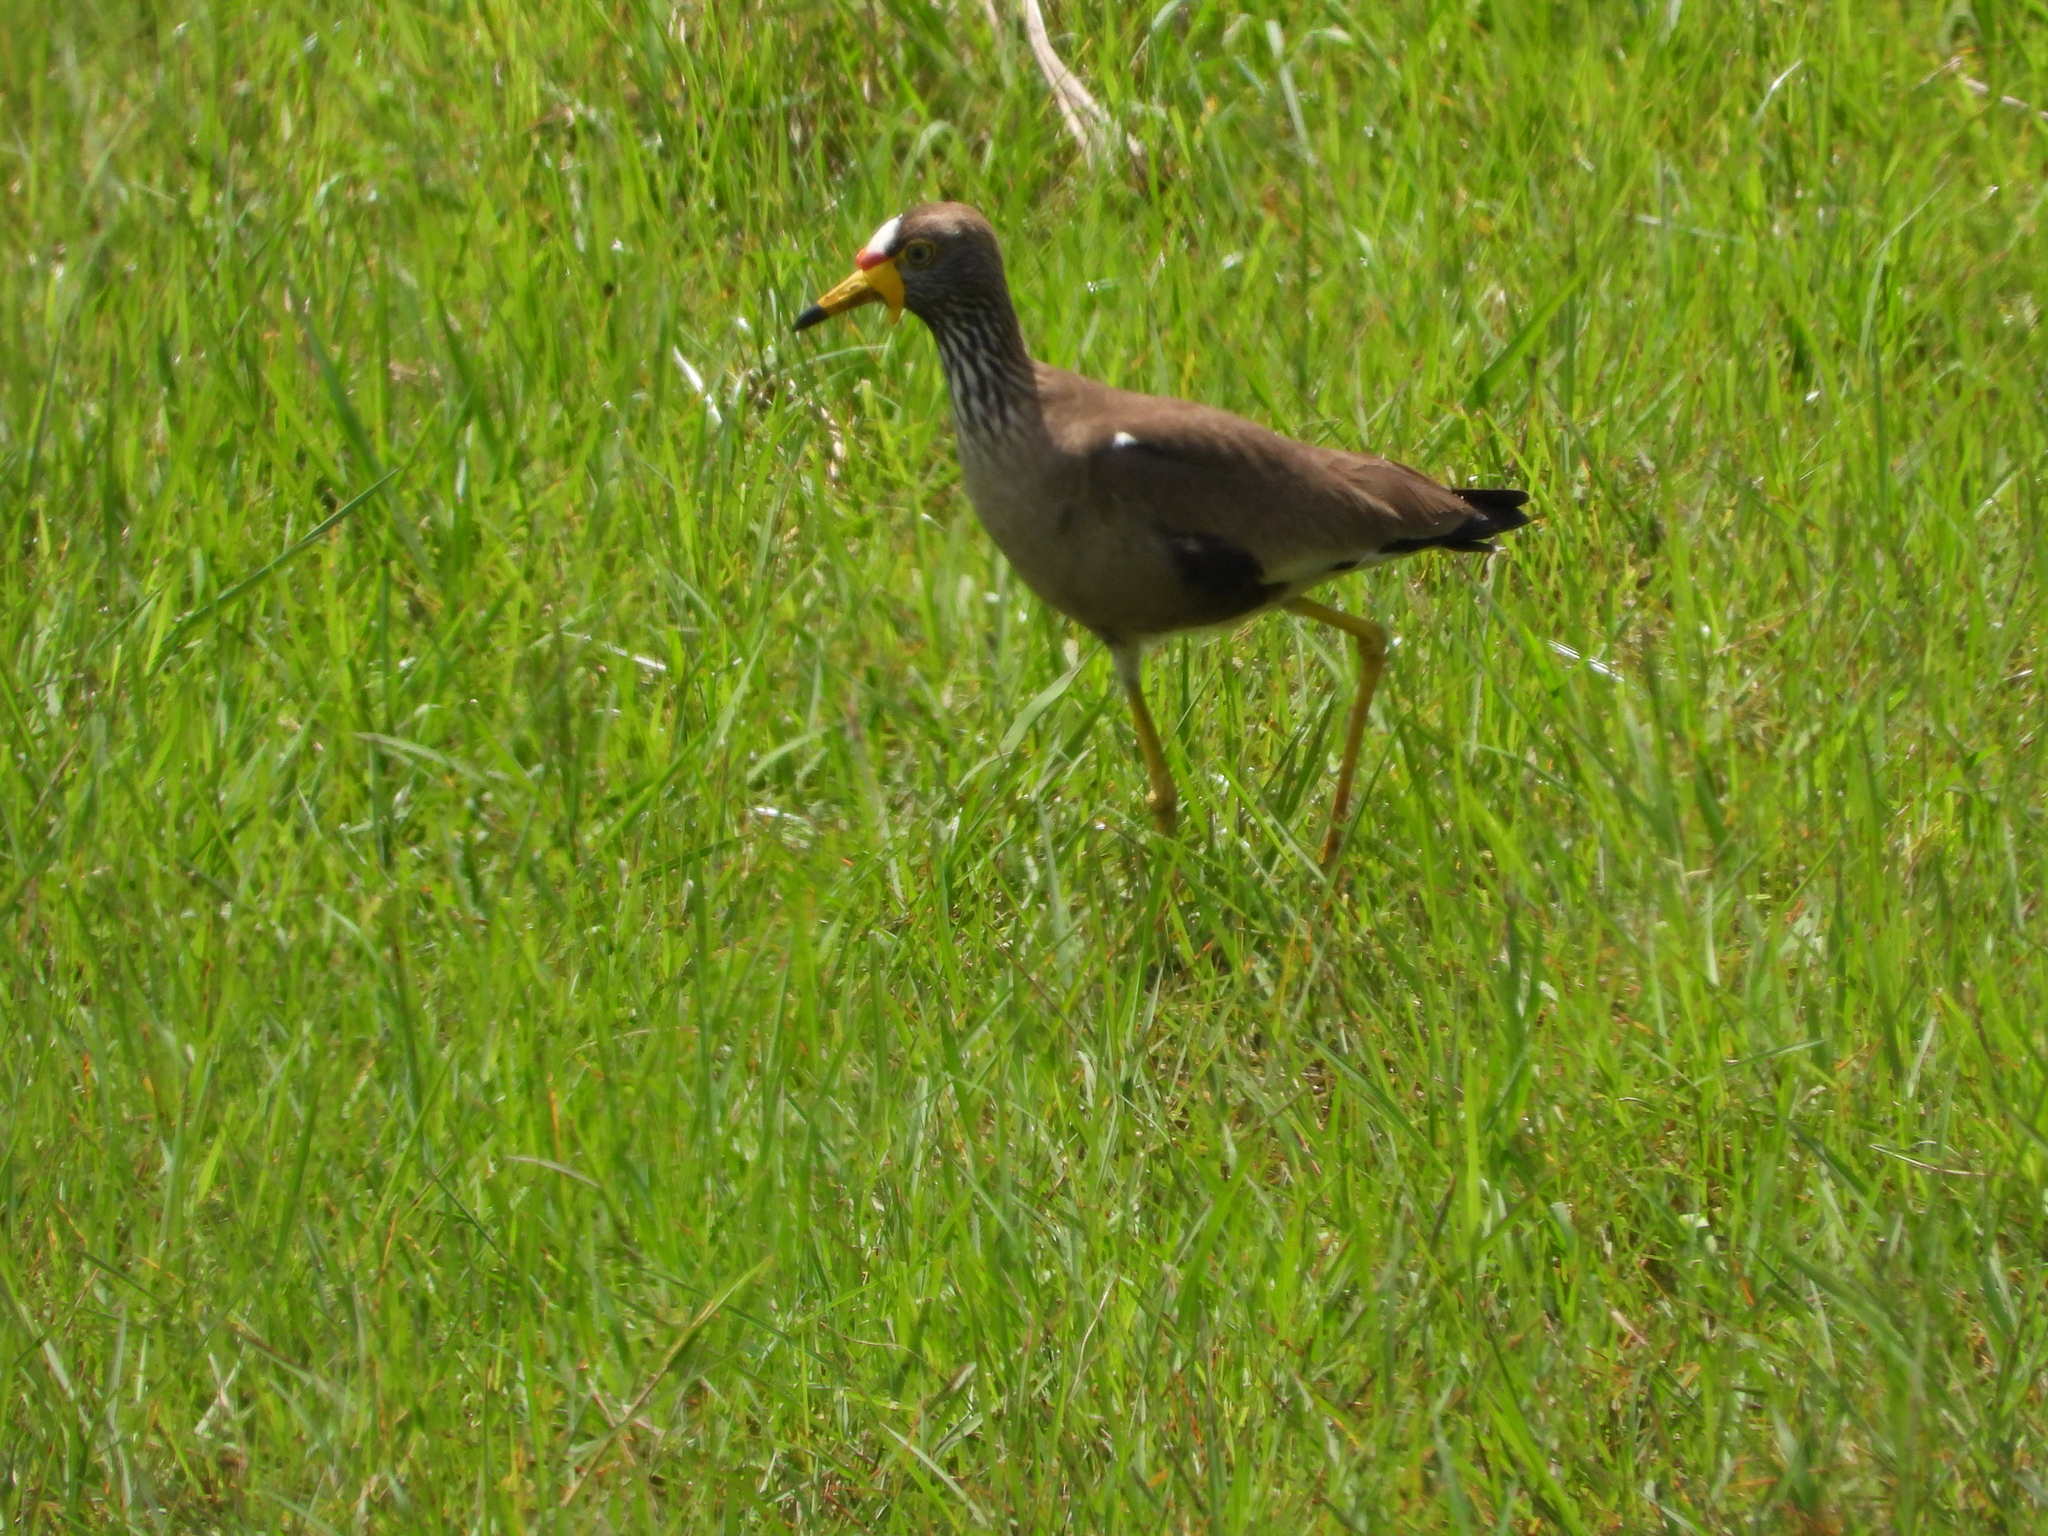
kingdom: Animalia
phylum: Chordata
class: Aves
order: Charadriiformes
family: Charadriidae
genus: Vanellus
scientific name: Vanellus senegallus
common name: African wattled lapwing
